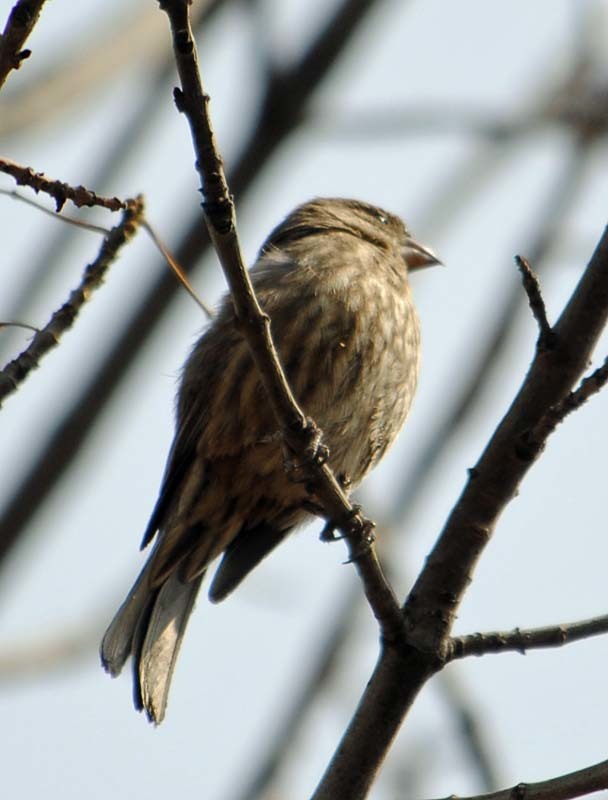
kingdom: Animalia
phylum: Chordata
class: Aves
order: Passeriformes
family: Fringillidae
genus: Haemorhous
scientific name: Haemorhous mexicanus
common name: House finch
